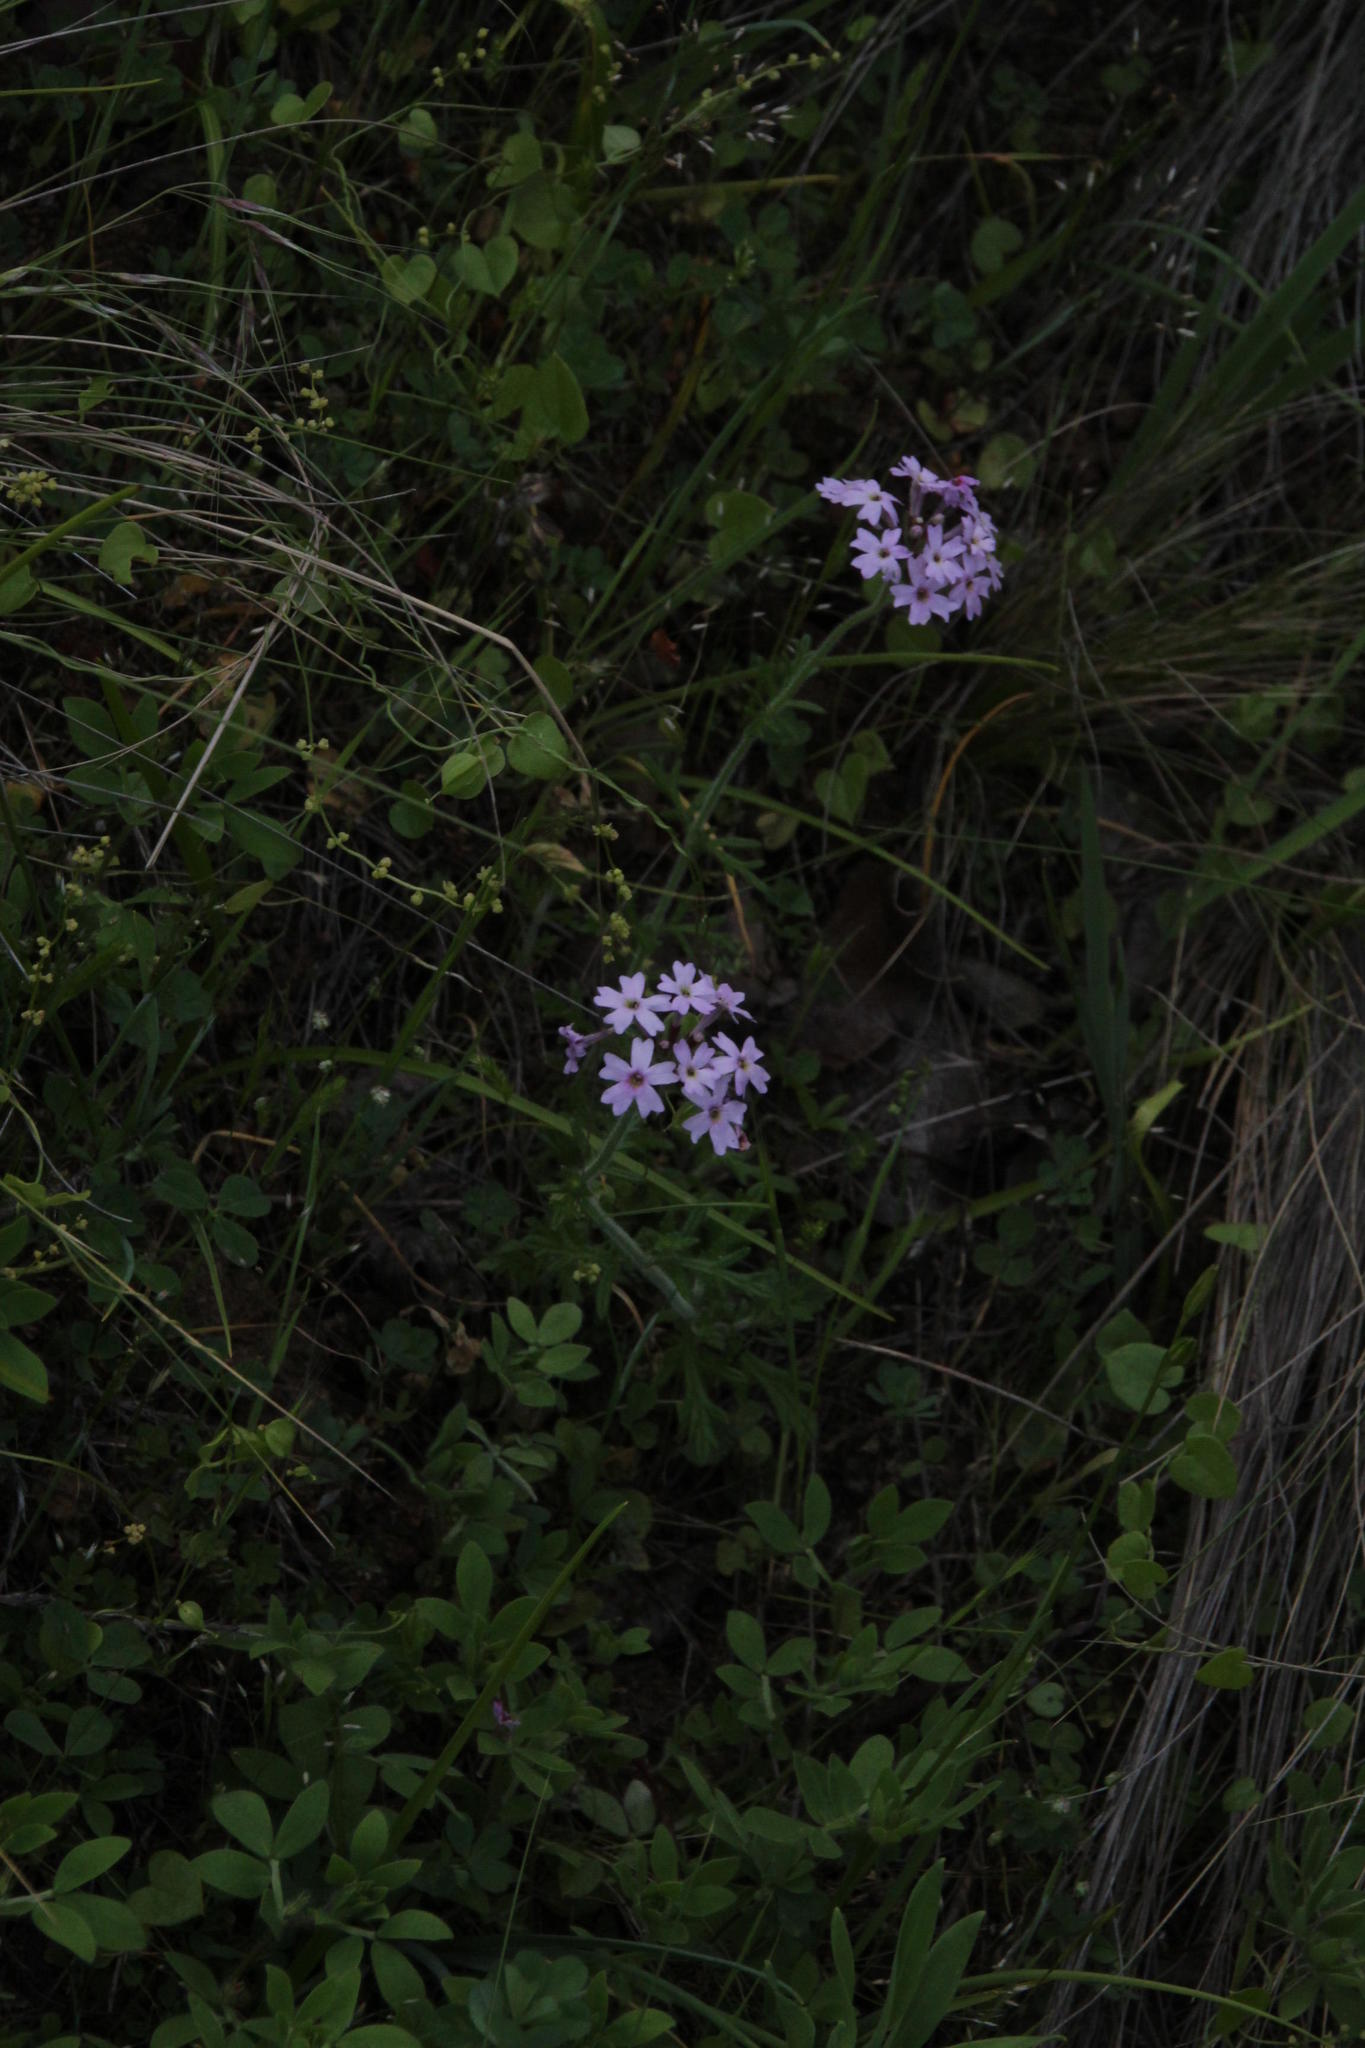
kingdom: Plantae
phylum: Tracheophyta
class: Magnoliopsida
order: Lamiales
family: Verbenaceae
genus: Verbena
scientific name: Verbena berteroi
